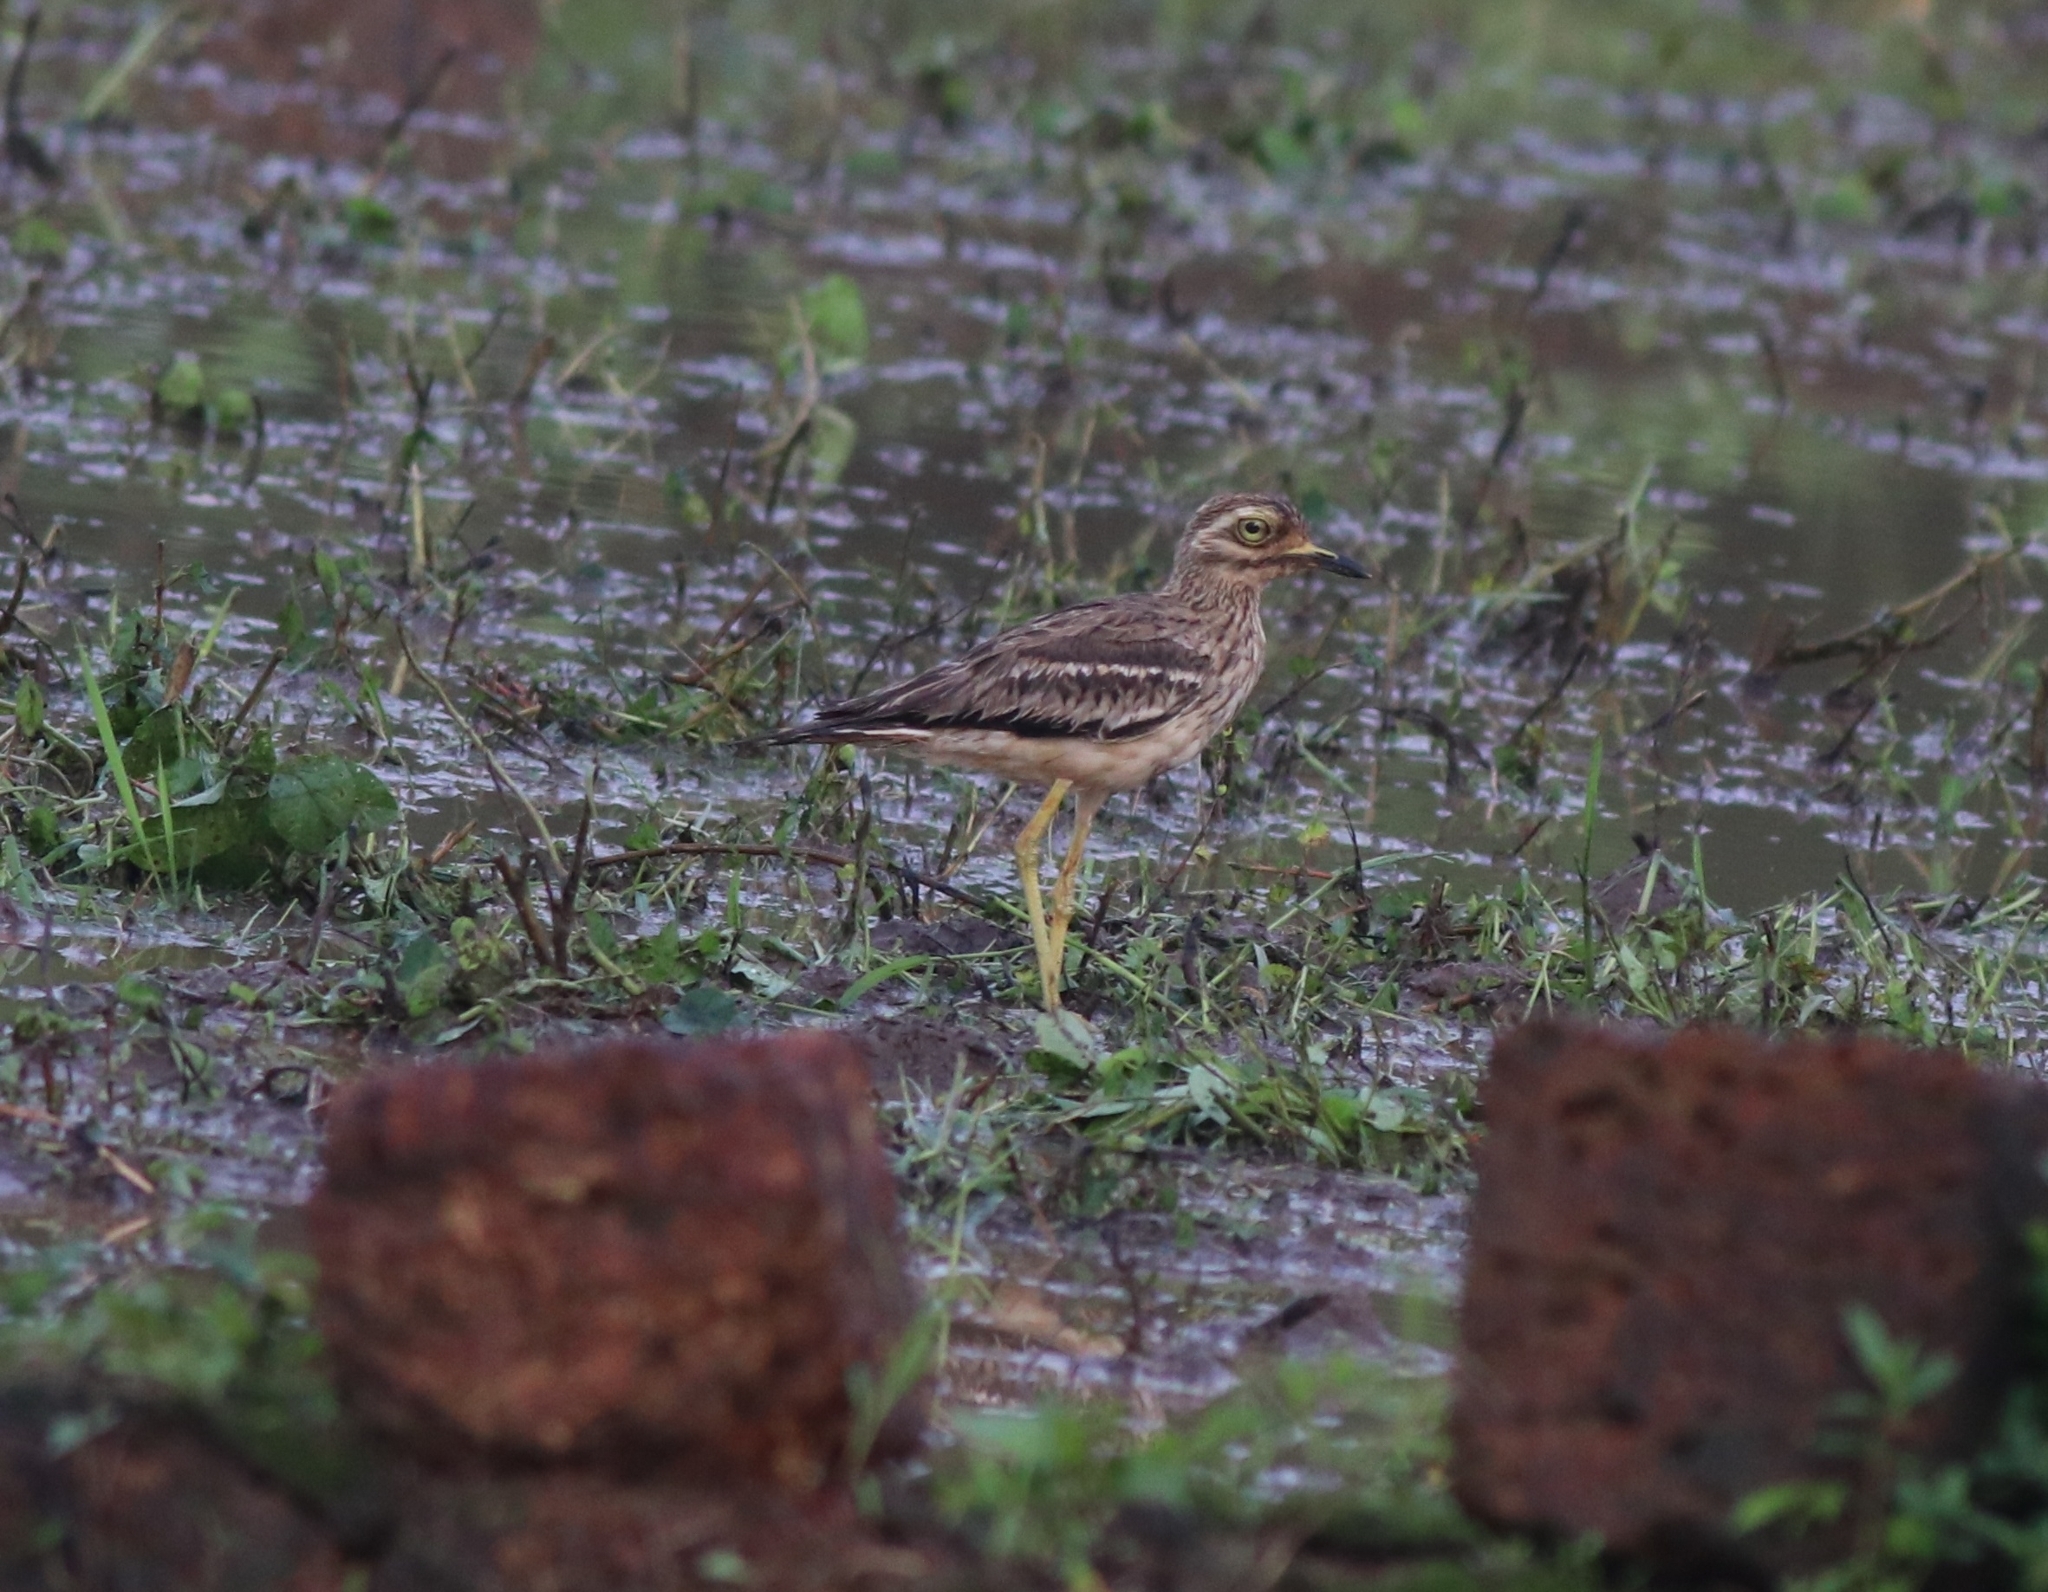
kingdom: Animalia
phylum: Chordata
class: Aves
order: Charadriiformes
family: Burhinidae
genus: Burhinus
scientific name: Burhinus indicus
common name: Indian thick-knee
